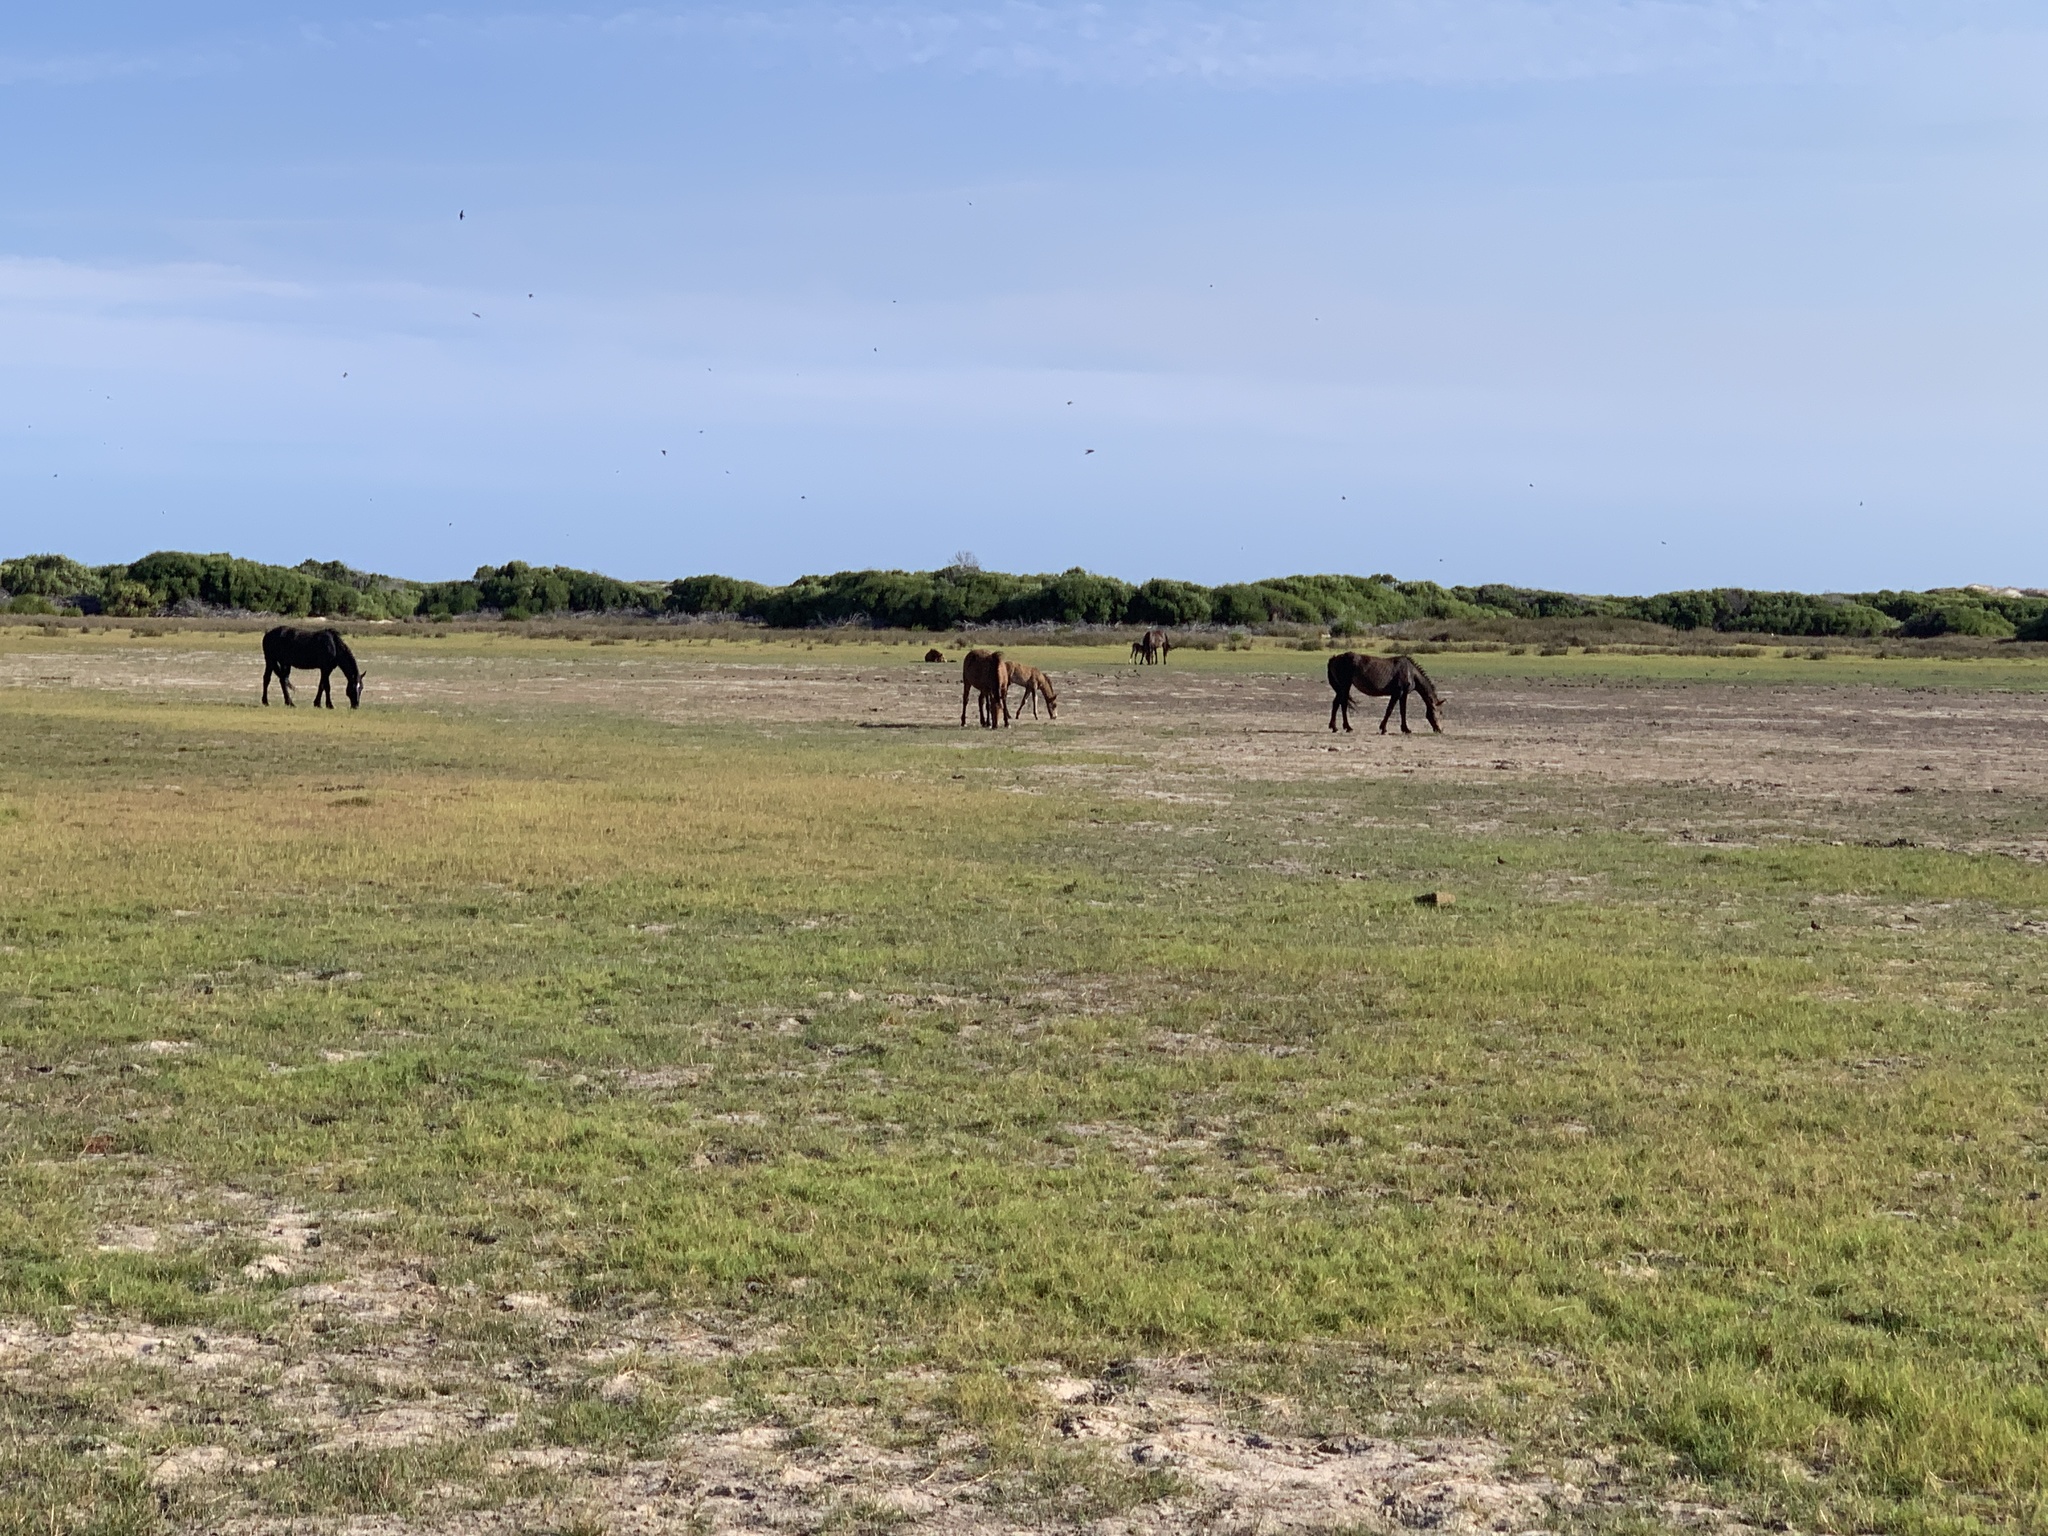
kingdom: Animalia
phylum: Chordata
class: Mammalia
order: Perissodactyla
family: Equidae
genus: Equus
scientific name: Equus caballus
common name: Horse
